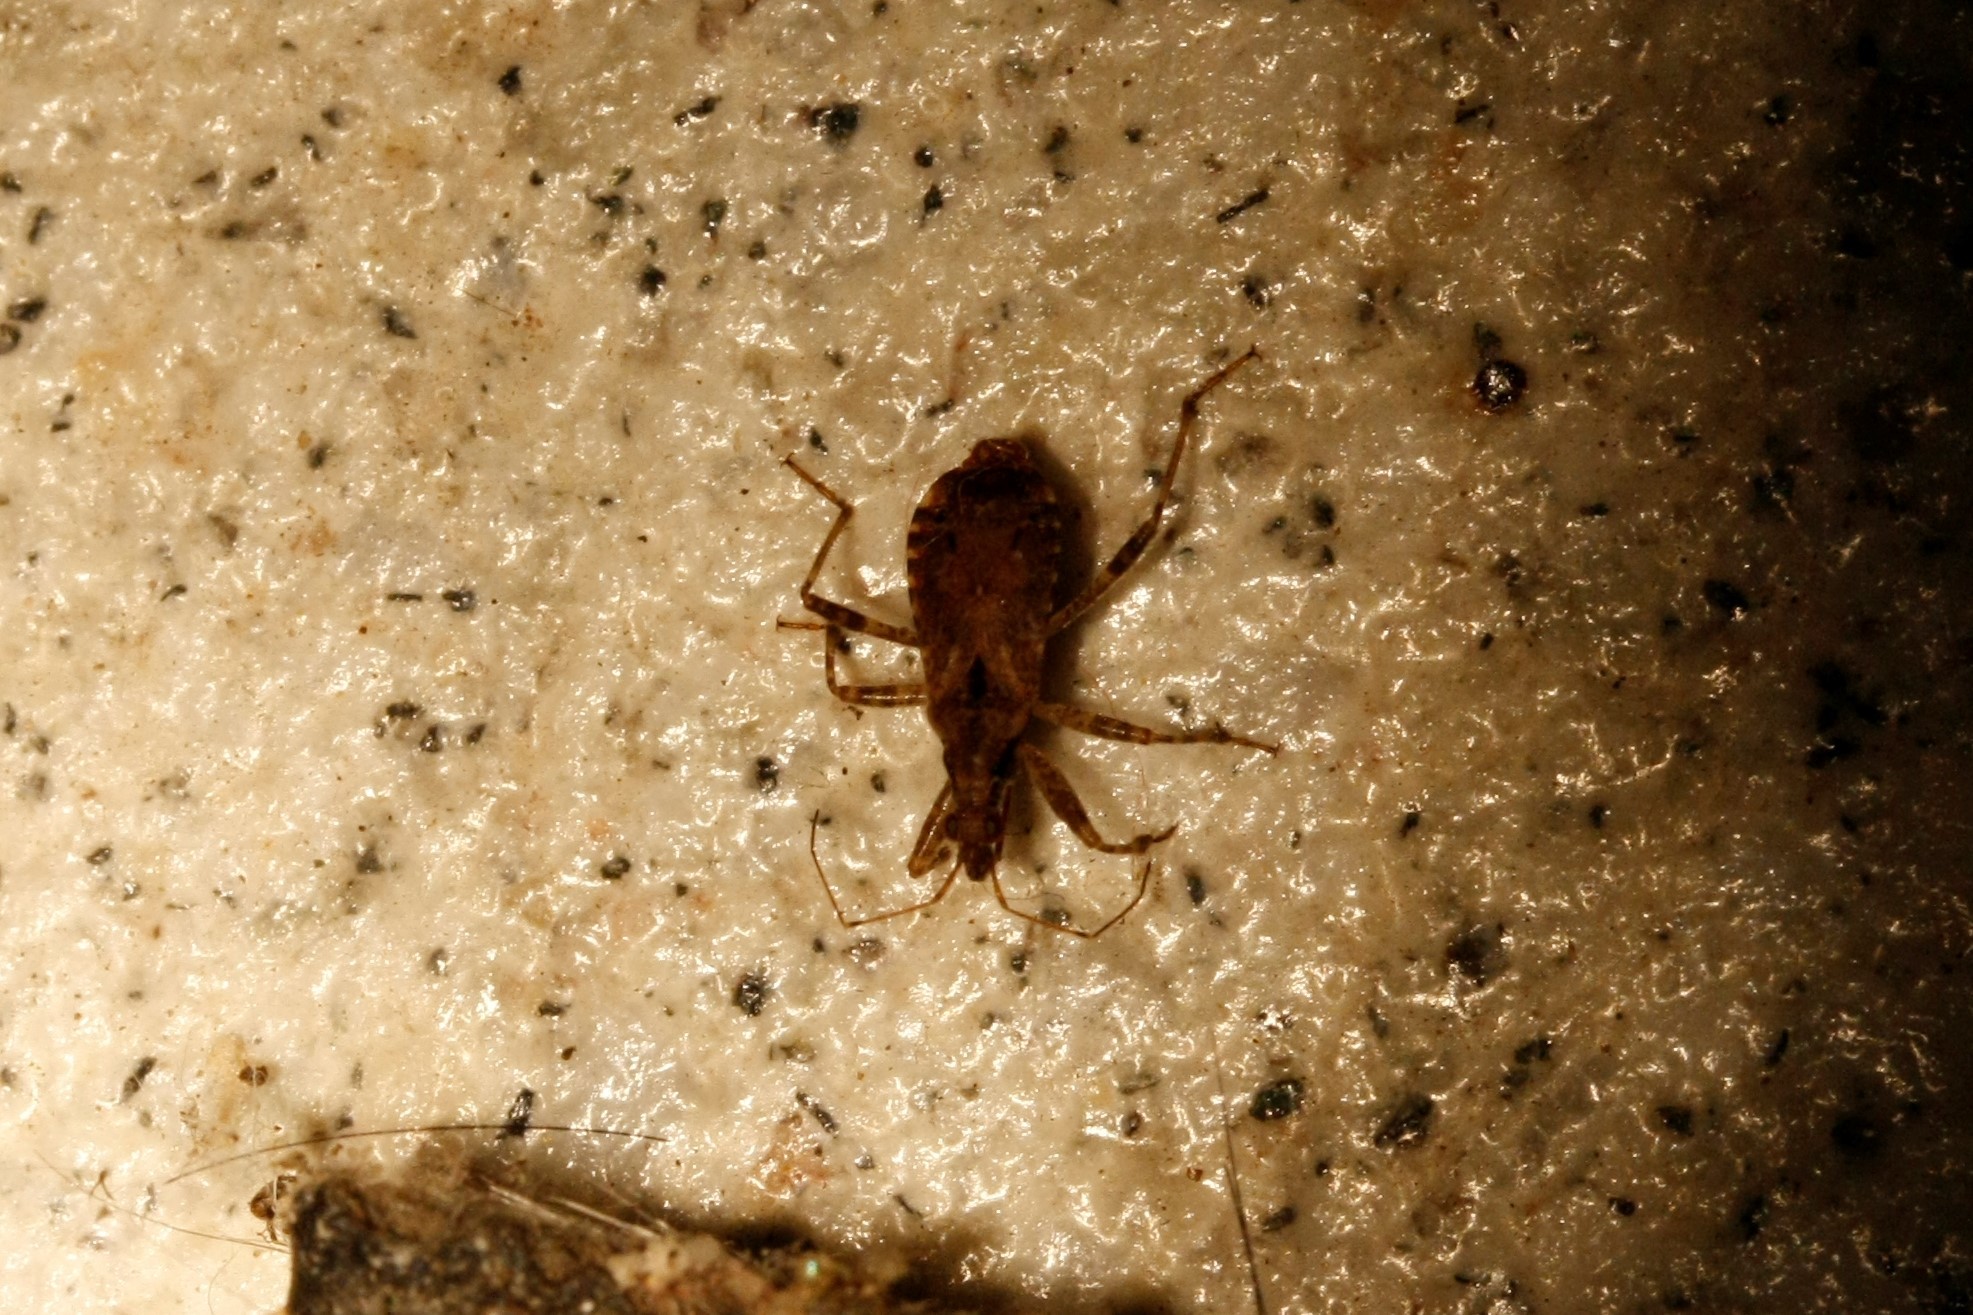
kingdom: Animalia
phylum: Arthropoda
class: Insecta
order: Hemiptera
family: Nabidae
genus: Himacerus
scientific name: Himacerus mirmicoides
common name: Ant damsel bug
